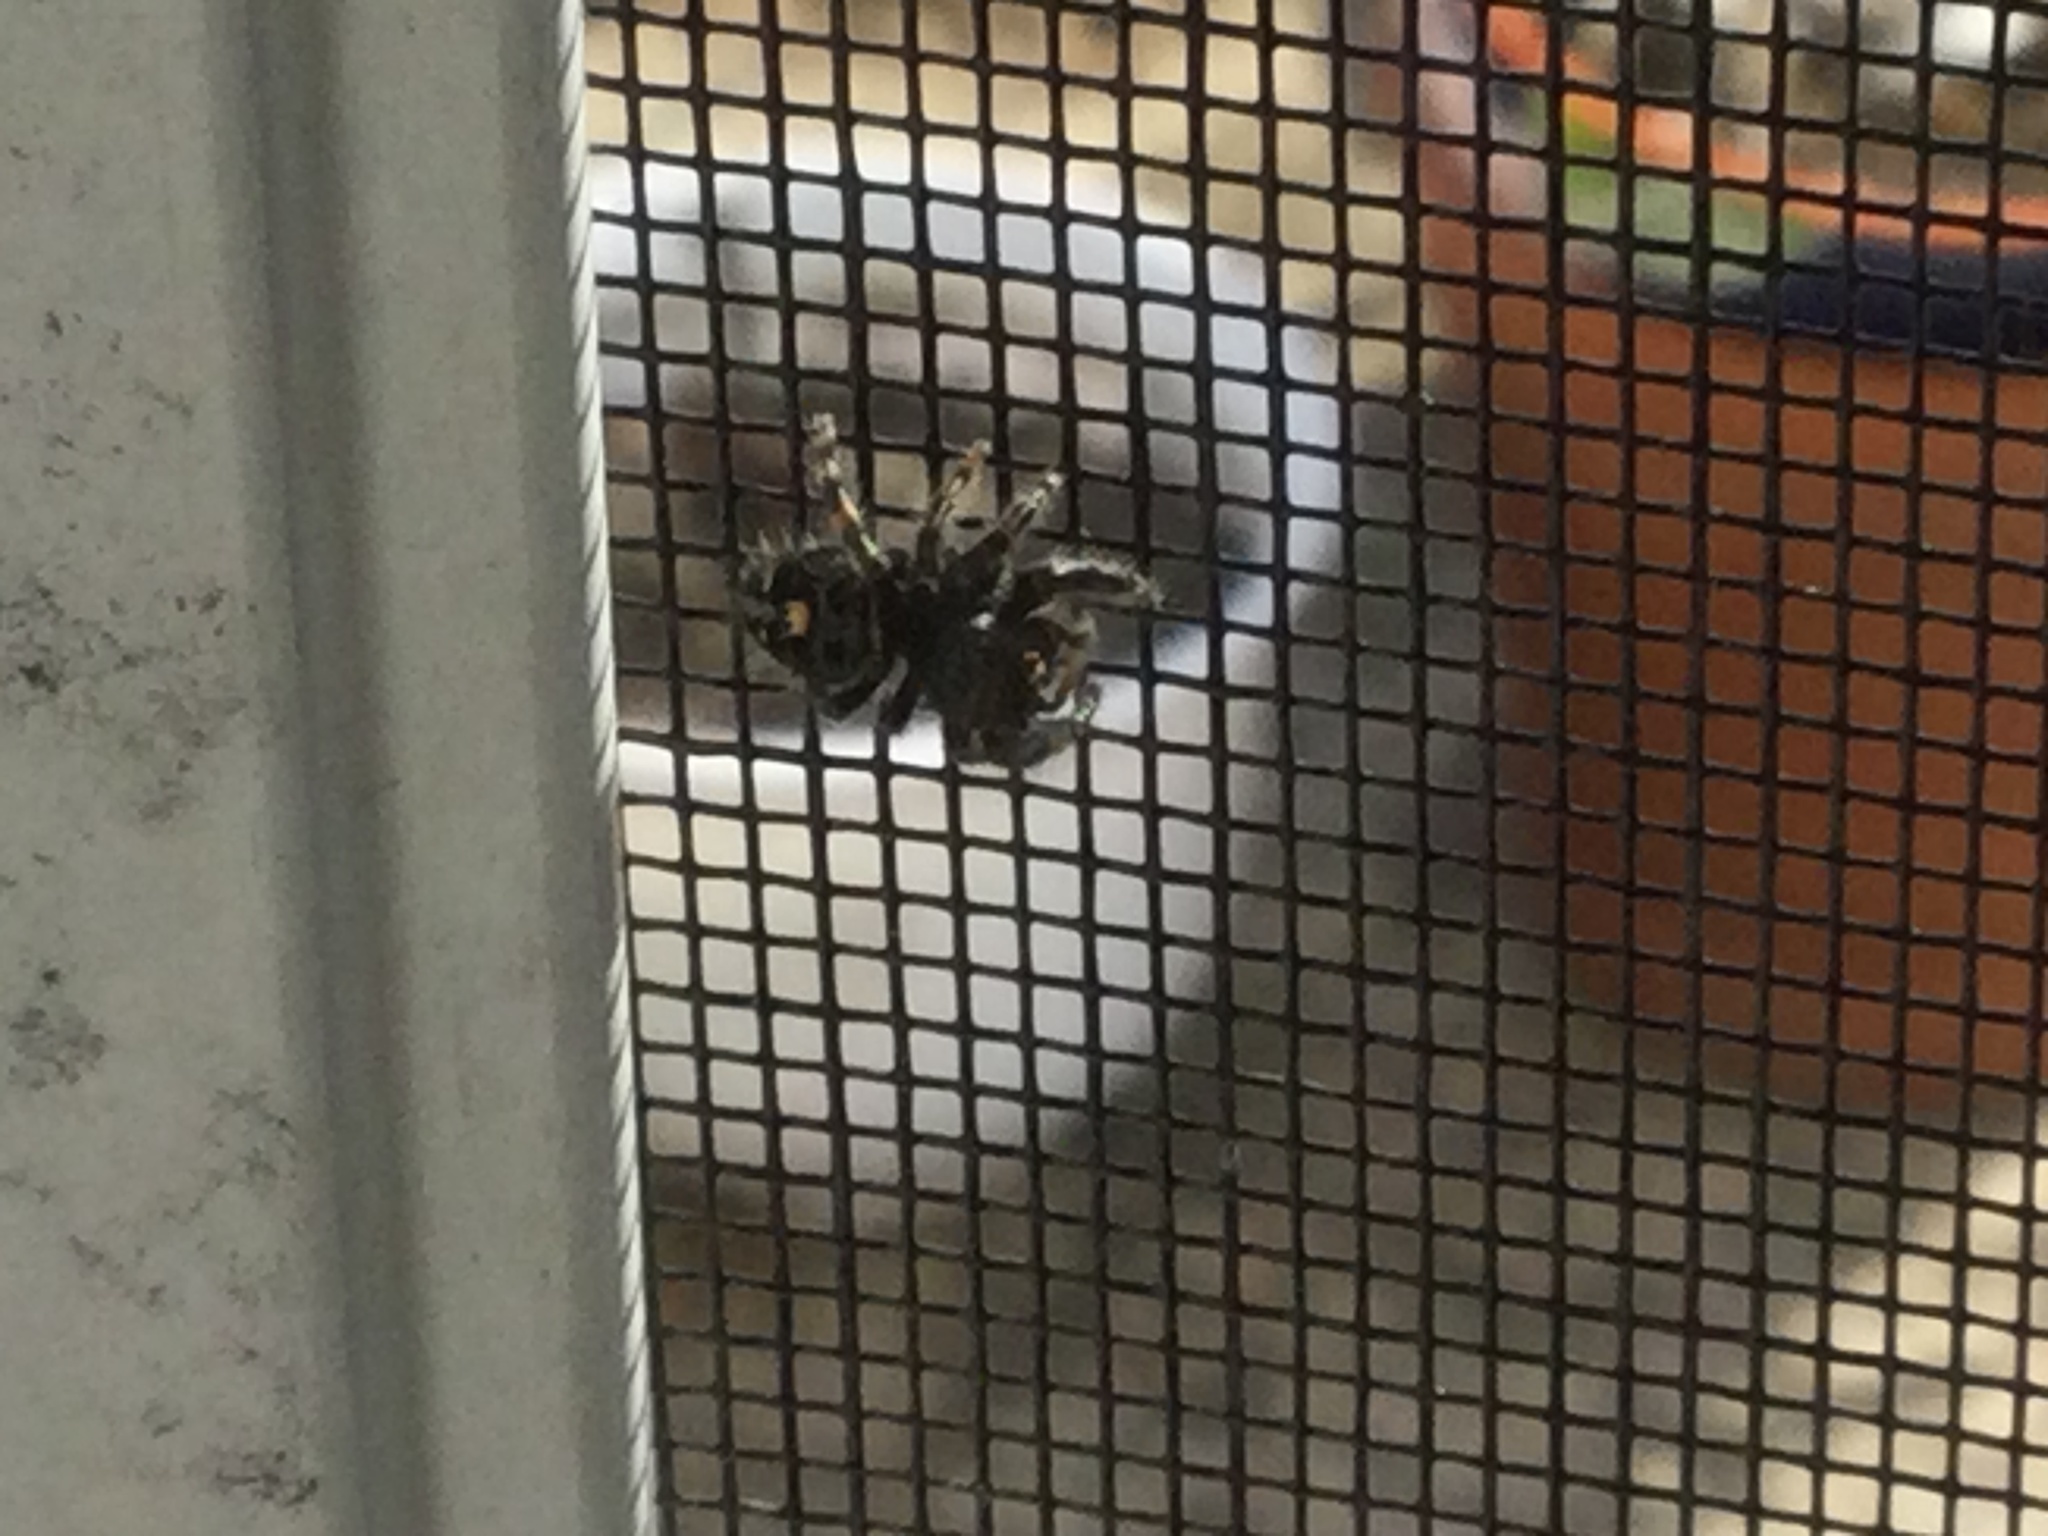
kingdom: Animalia
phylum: Arthropoda
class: Arachnida
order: Araneae
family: Salticidae
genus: Phidippus
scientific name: Phidippus audax
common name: Bold jumper
